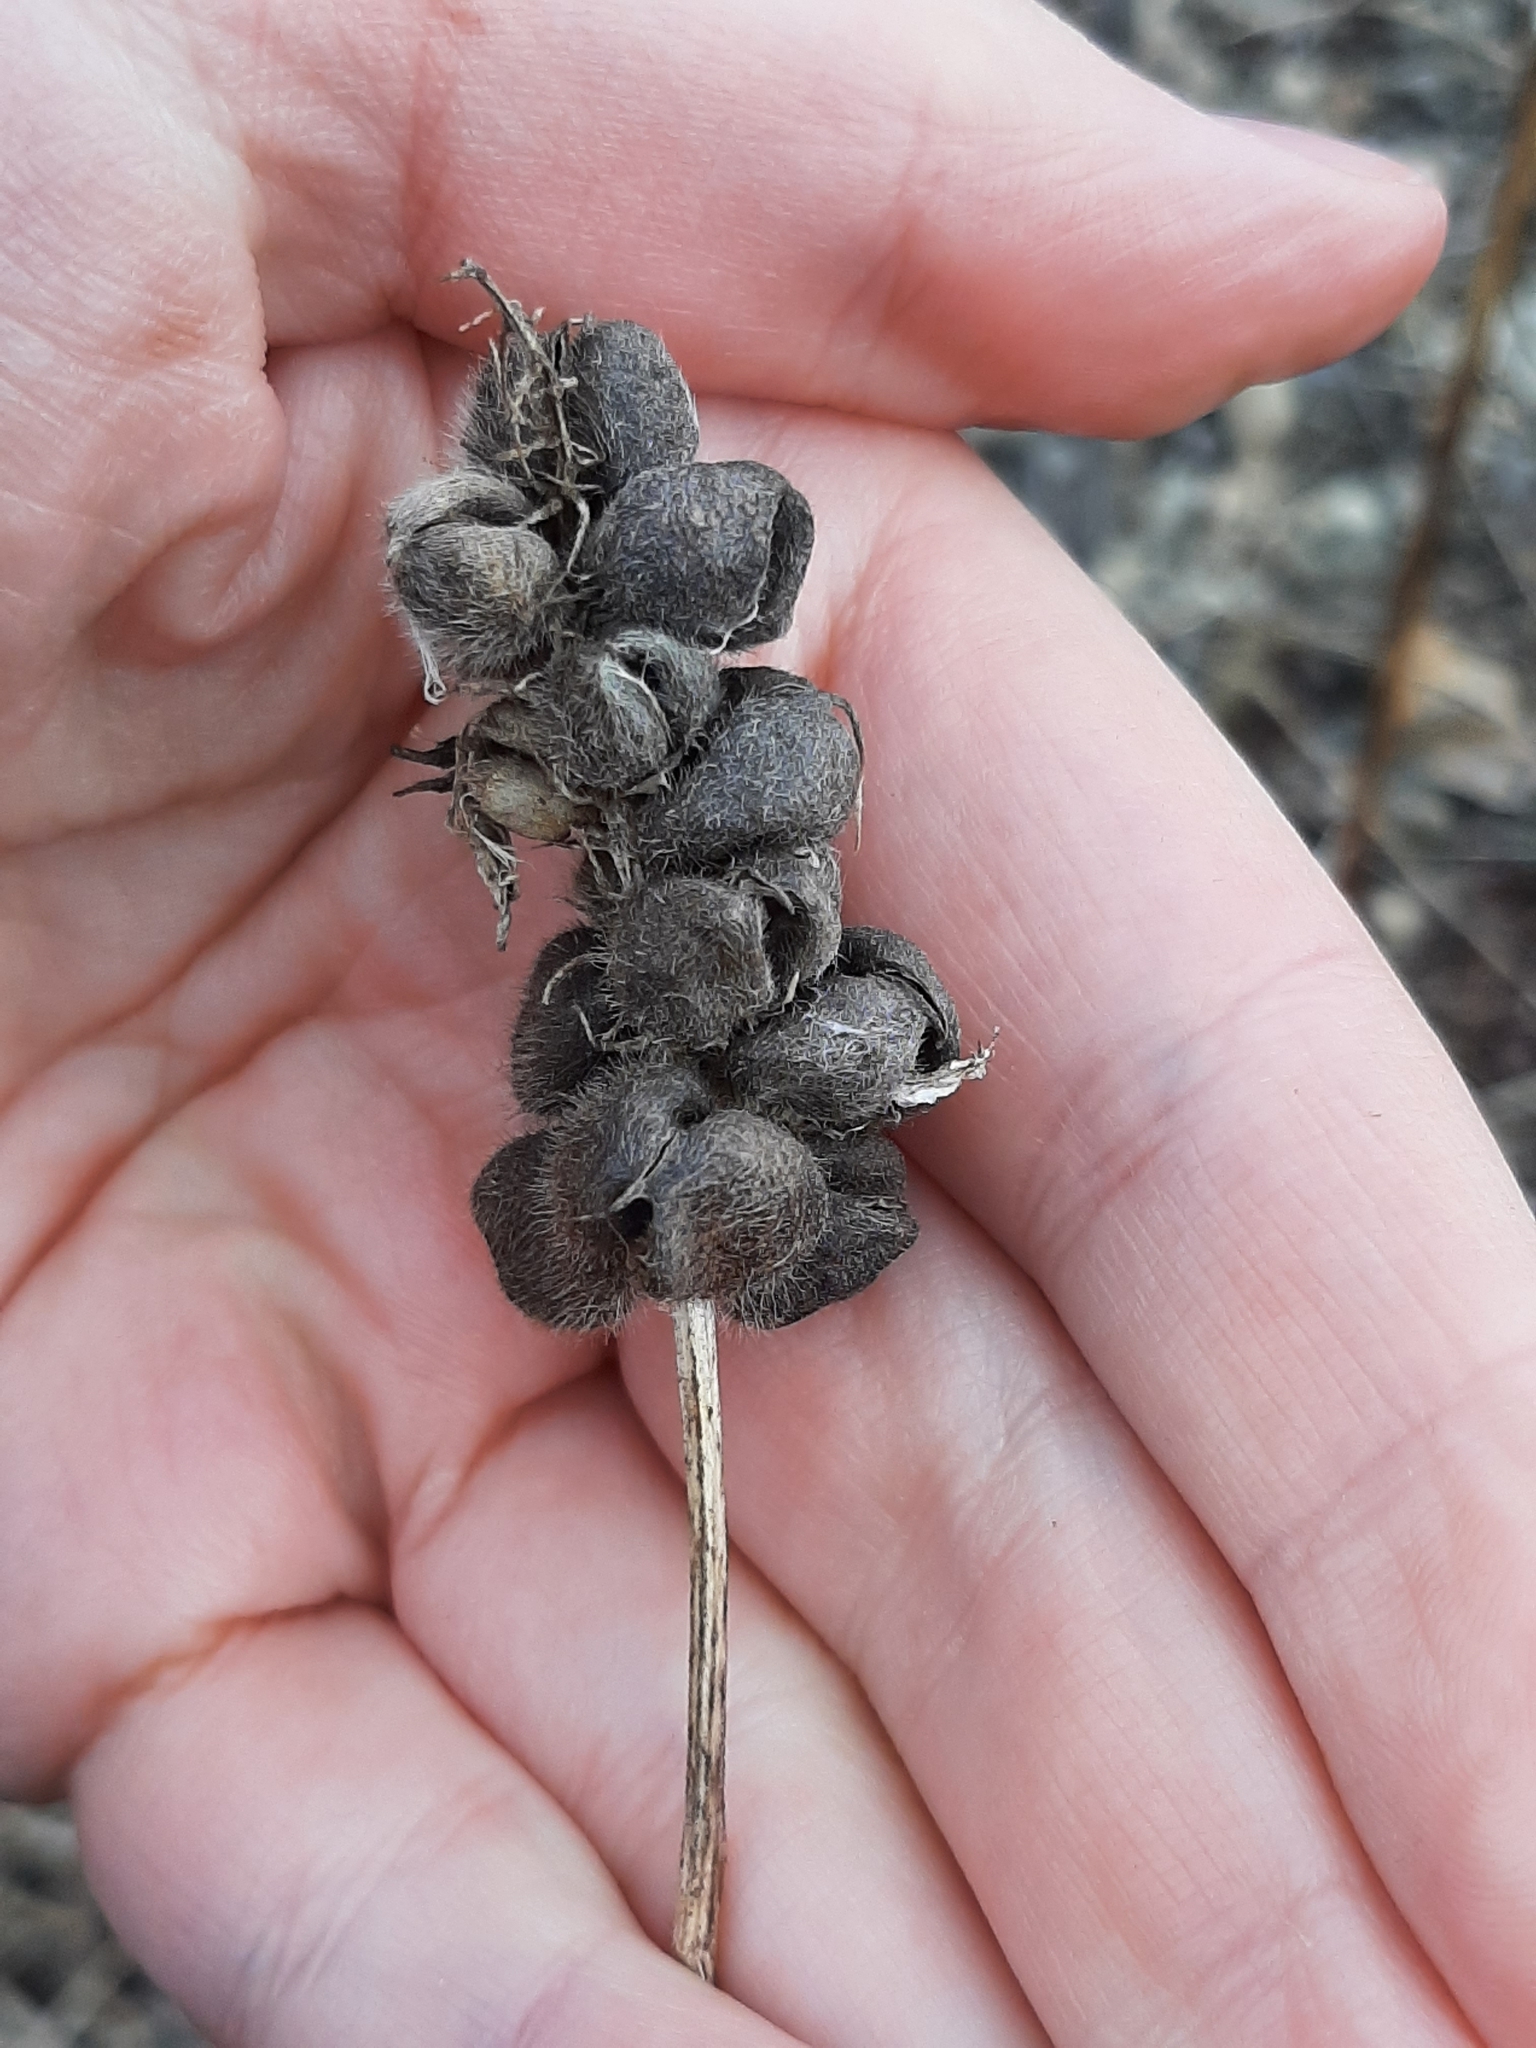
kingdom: Plantae
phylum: Tracheophyta
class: Magnoliopsida
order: Fabales
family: Fabaceae
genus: Astragalus
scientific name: Astragalus cicer
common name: Chick-pea milk-vetch
